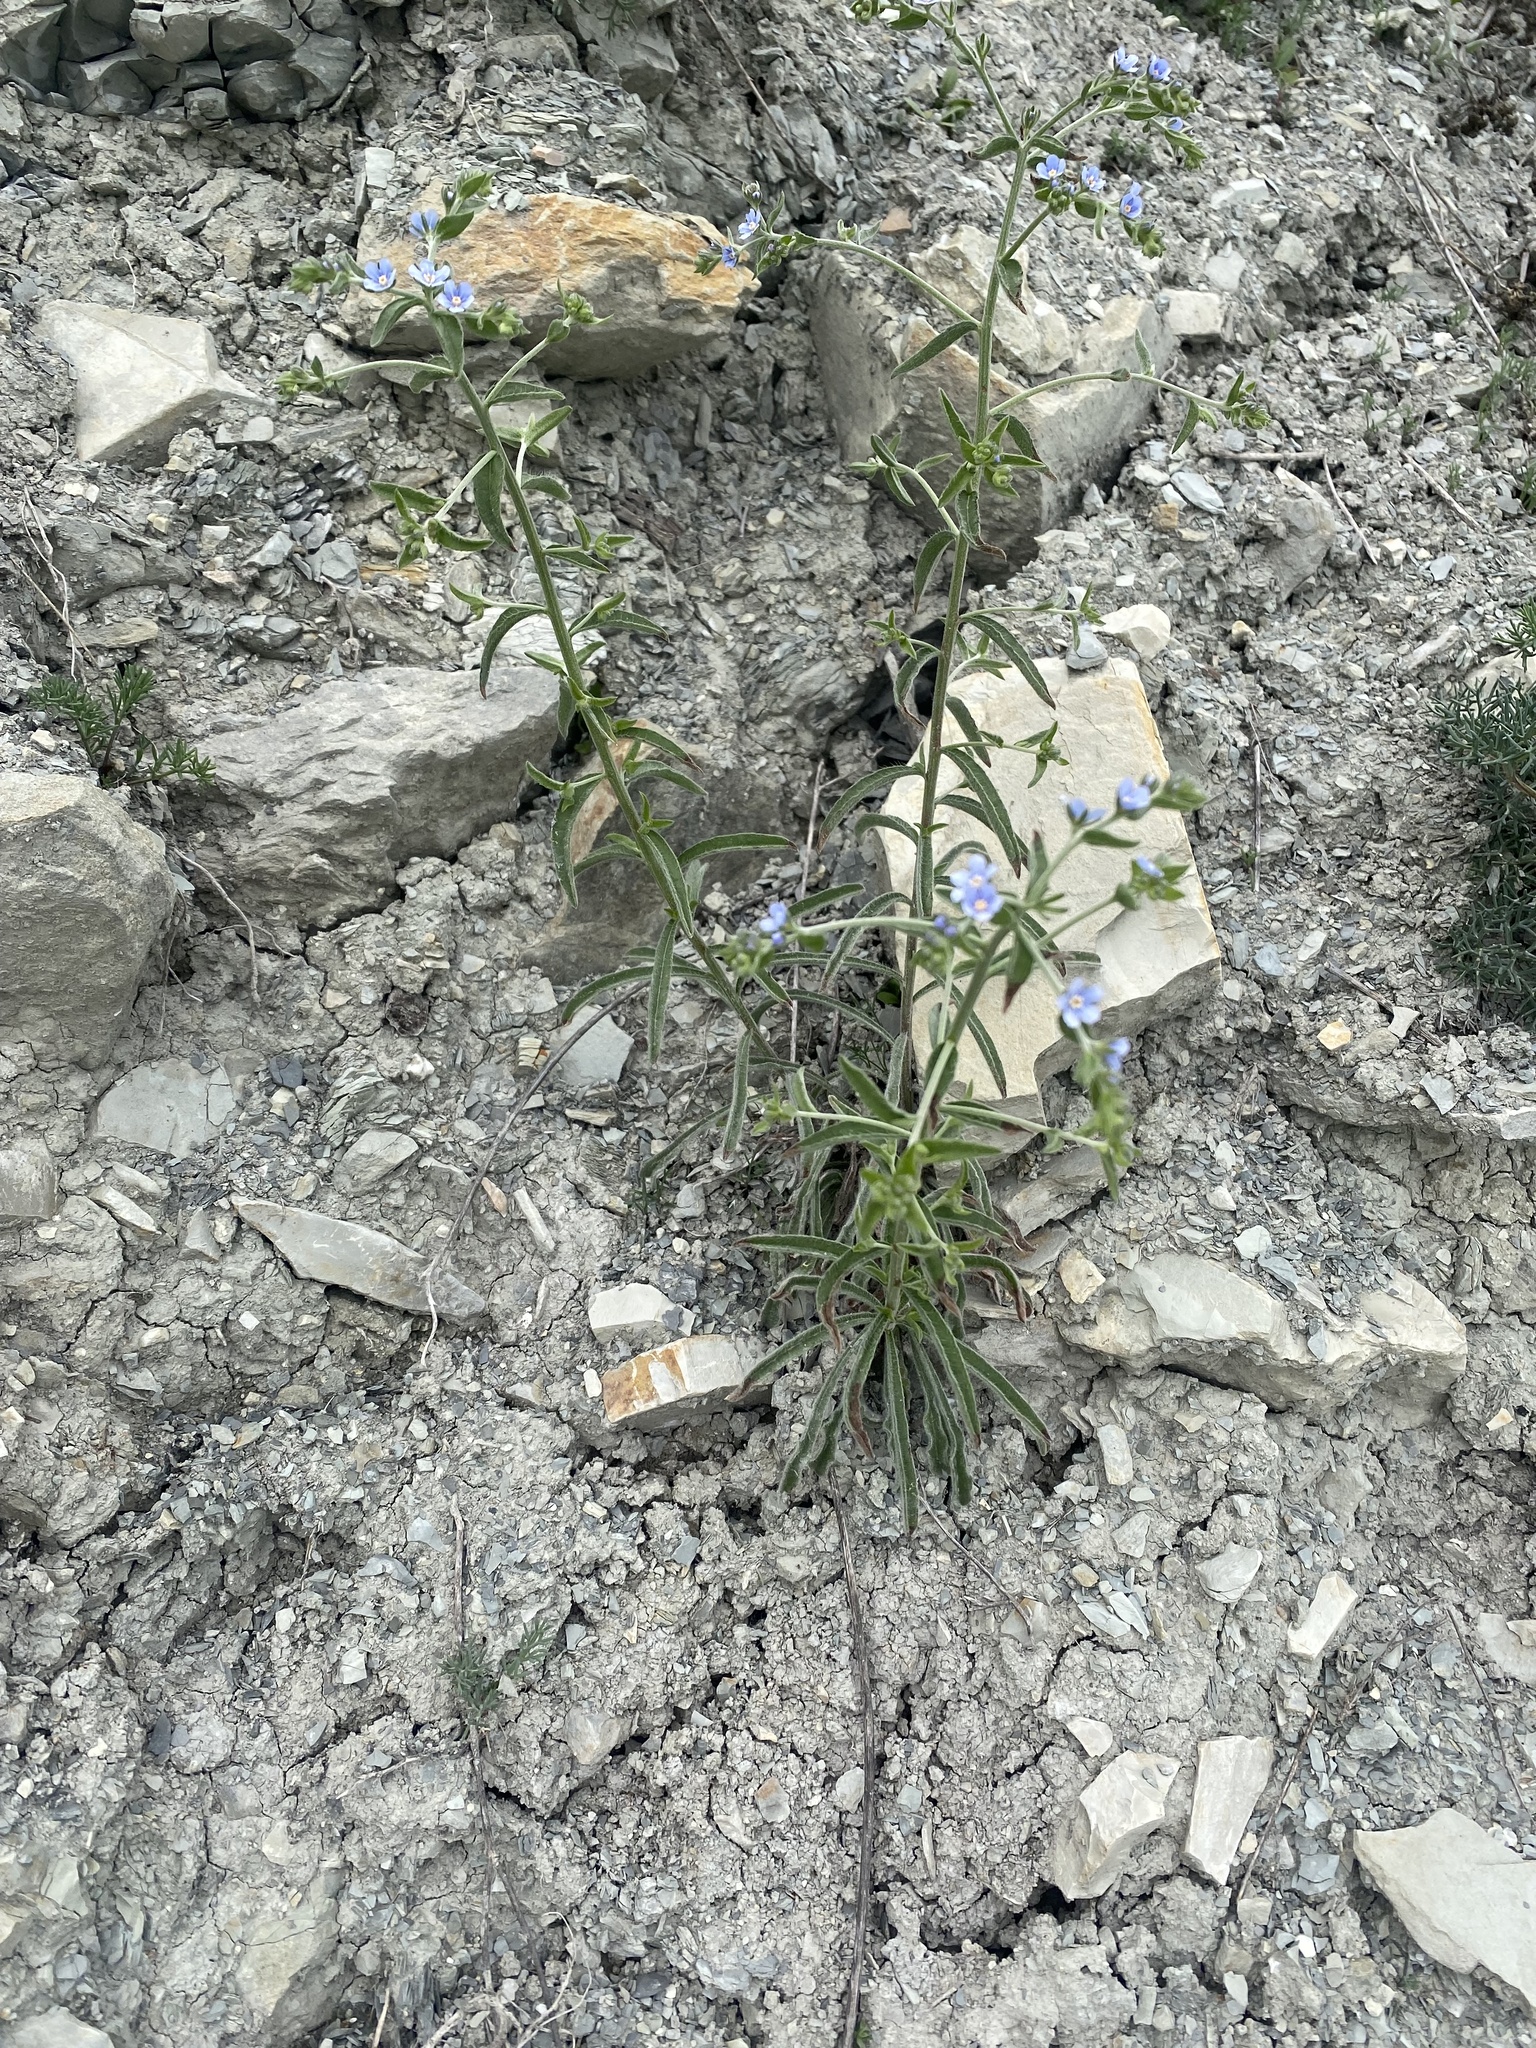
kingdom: Plantae
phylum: Tracheophyta
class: Magnoliopsida
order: Boraginales
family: Boraginaceae
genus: Lappula
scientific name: Lappula barbata
